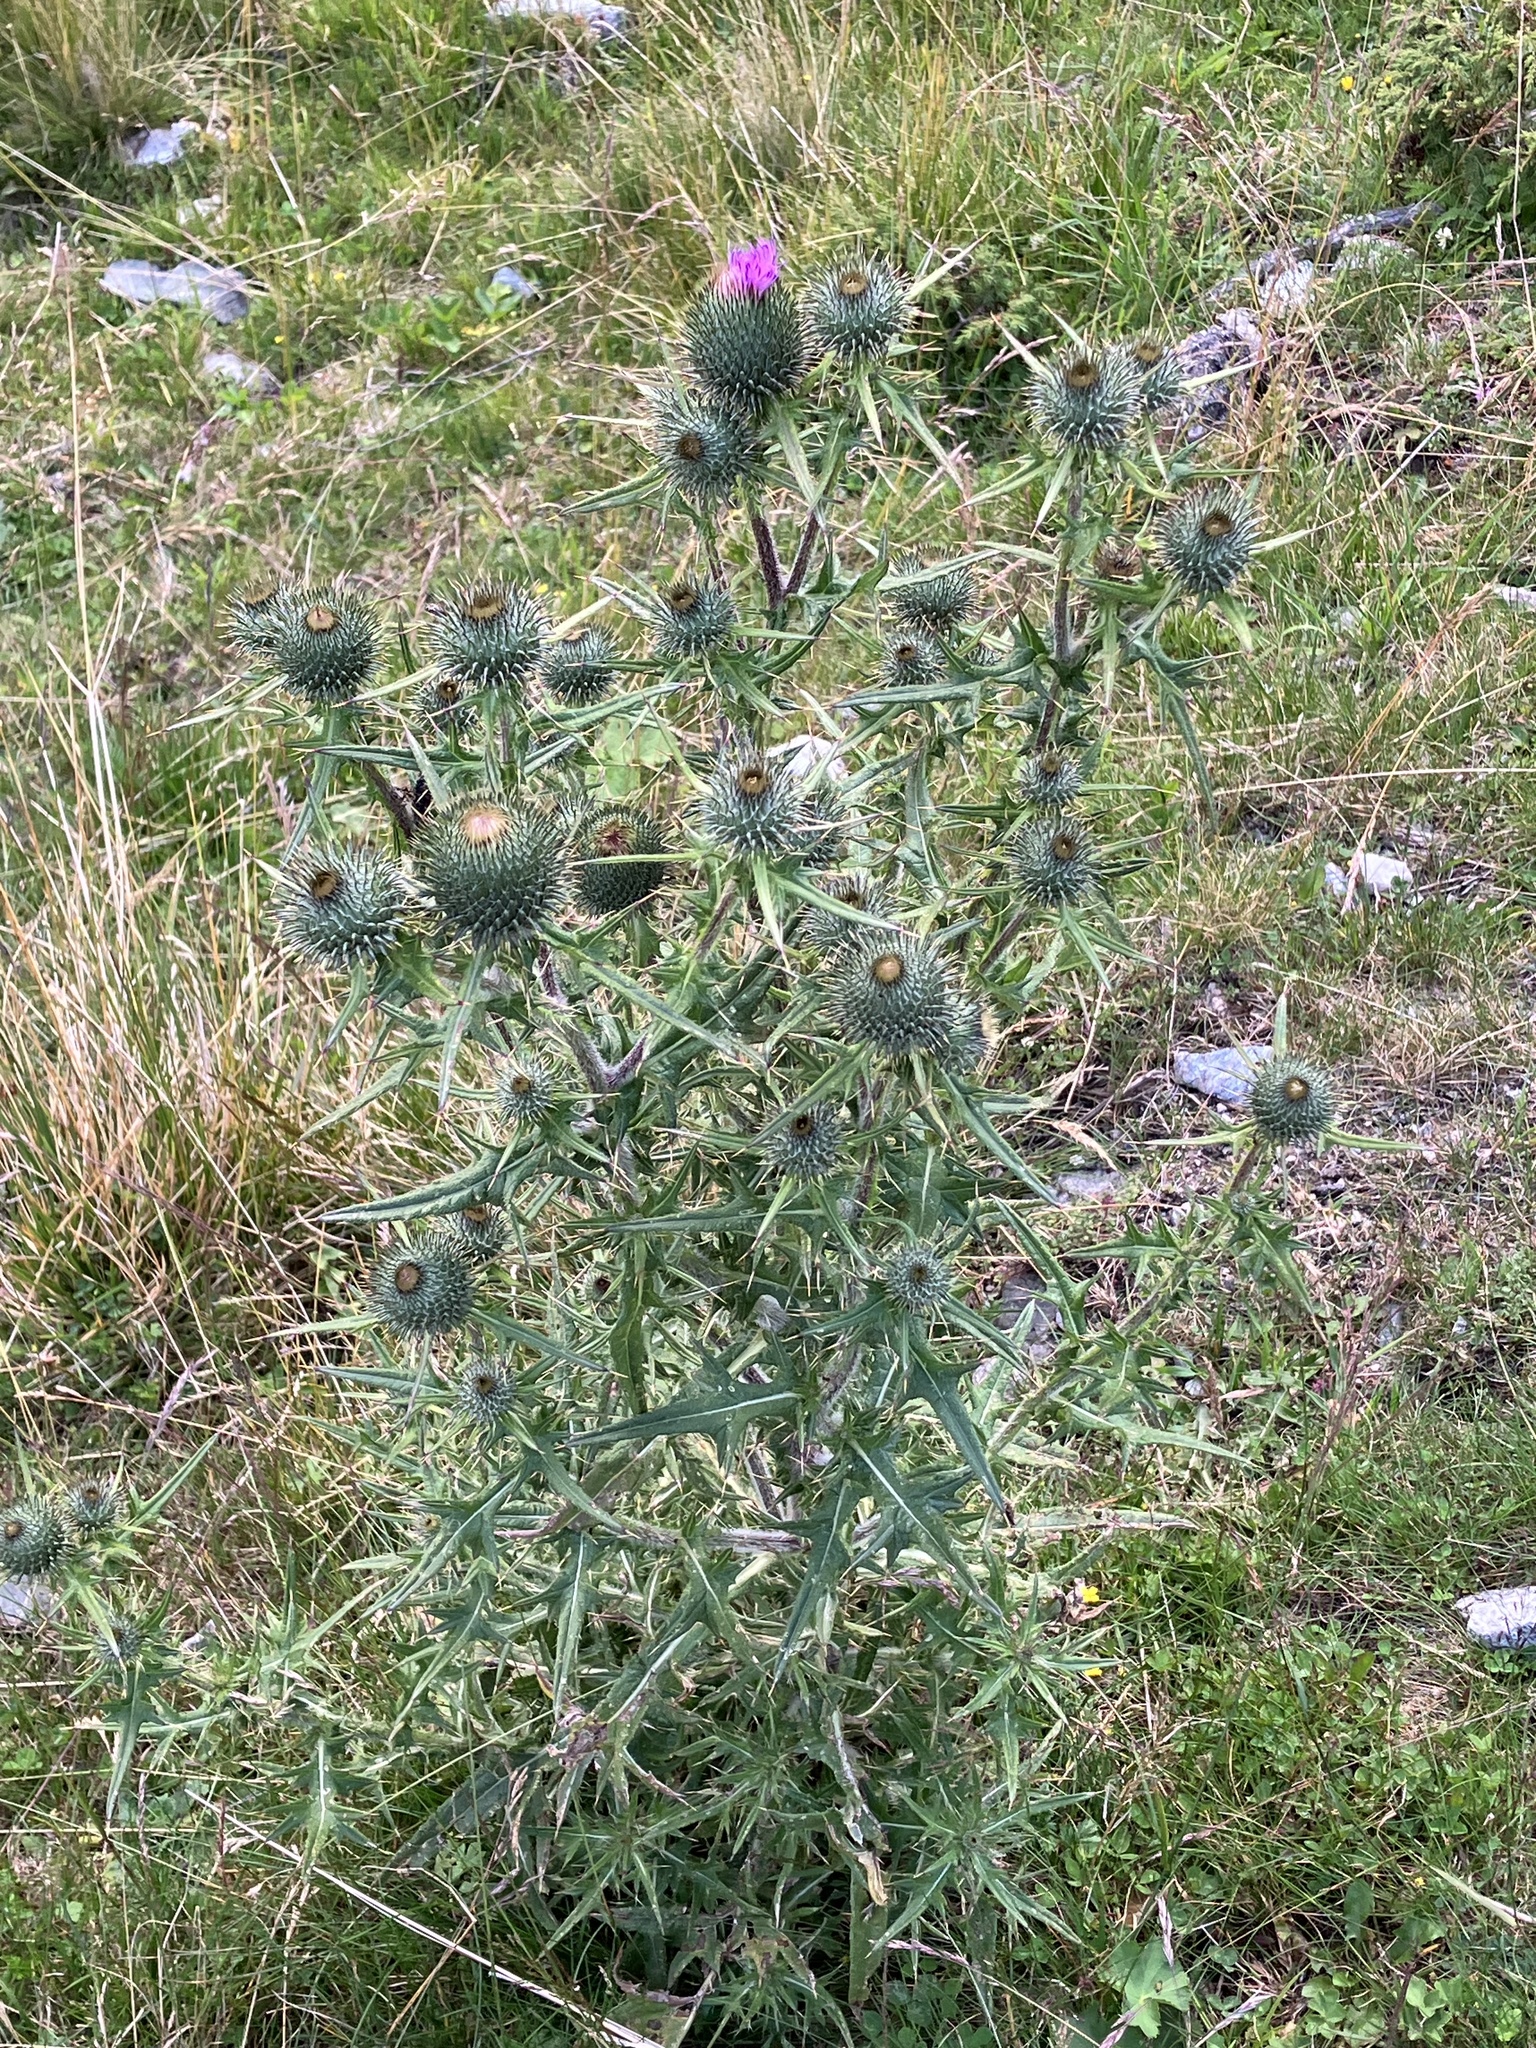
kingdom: Plantae
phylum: Tracheophyta
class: Magnoliopsida
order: Asterales
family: Asteraceae
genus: Cirsium
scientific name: Cirsium vulgare
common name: Bull thistle
